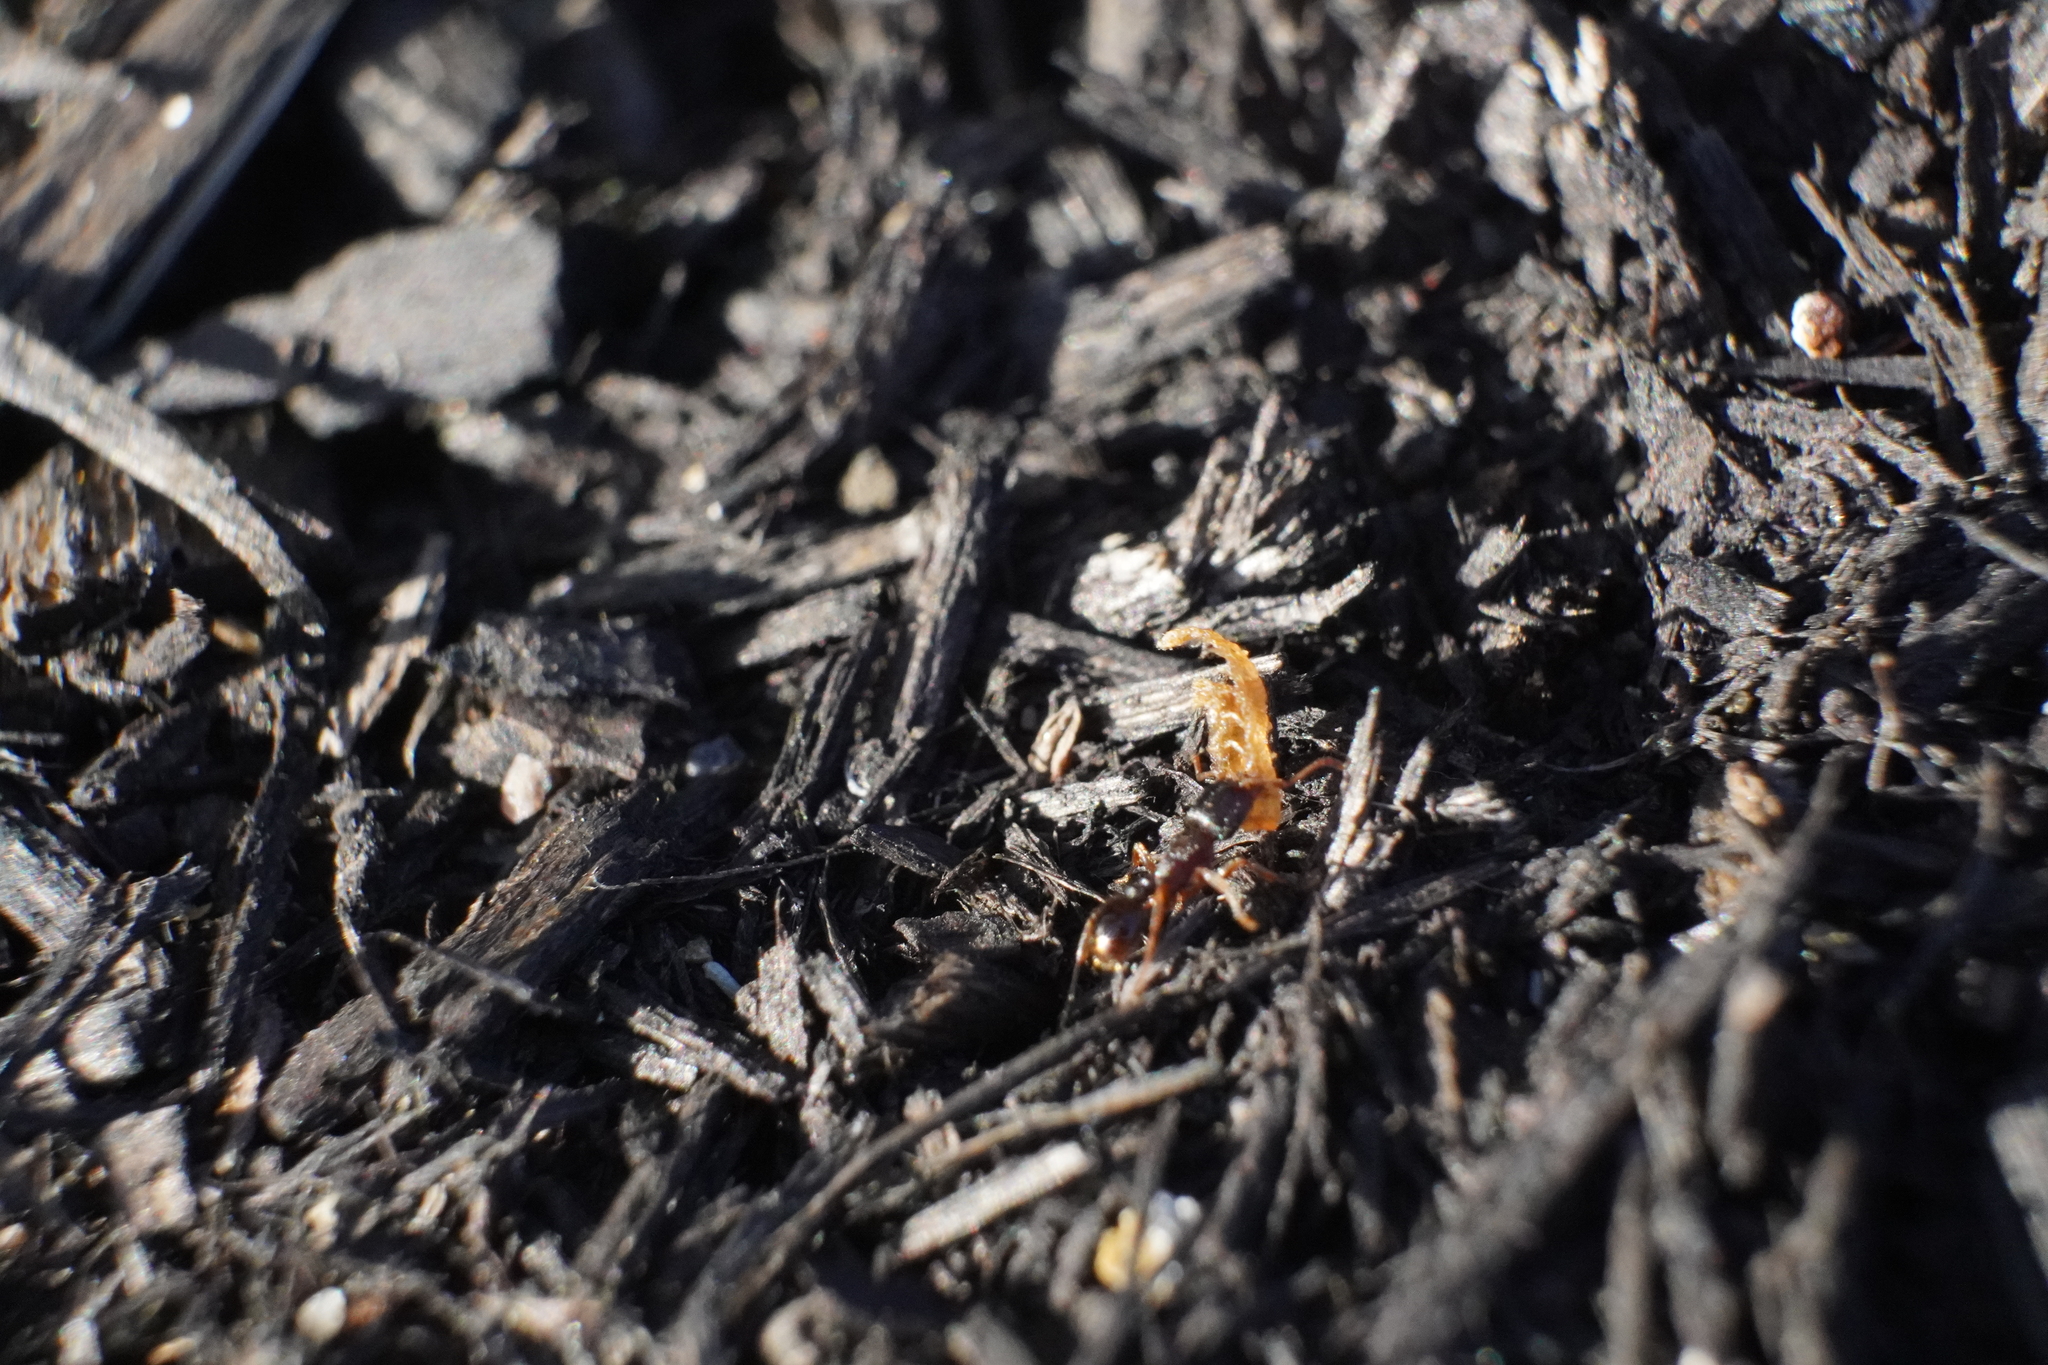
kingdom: Animalia
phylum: Arthropoda
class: Insecta
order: Hymenoptera
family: Formicidae
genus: Tetramorium
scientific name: Tetramorium immigrans
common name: Pavement ant
